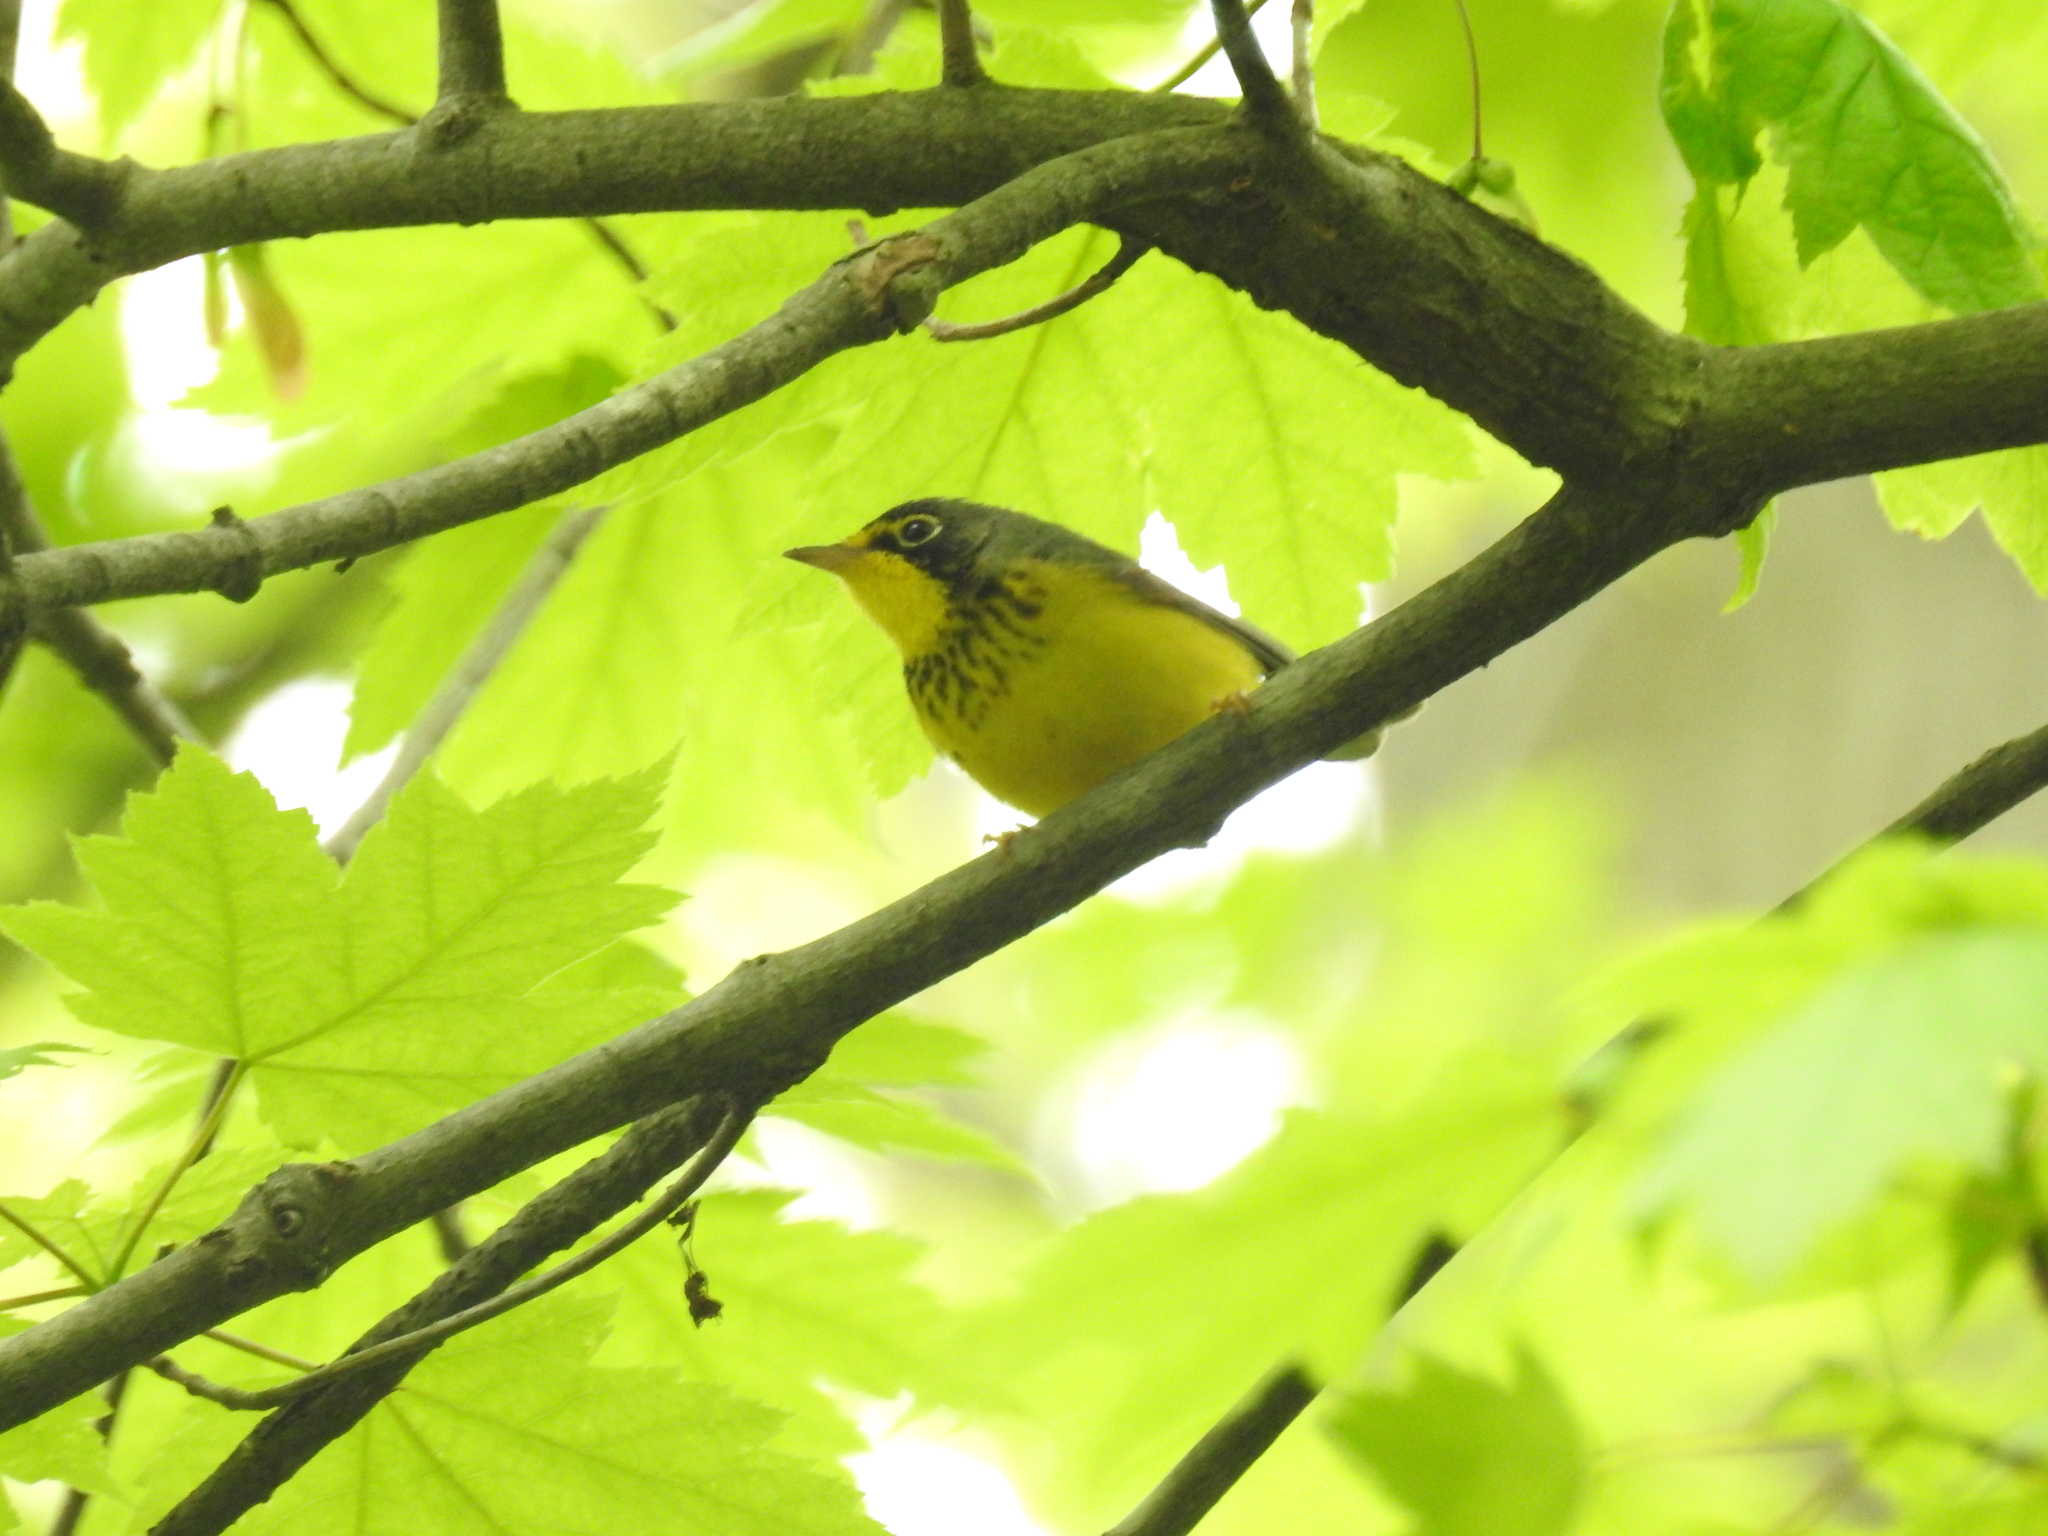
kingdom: Animalia
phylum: Chordata
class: Aves
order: Passeriformes
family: Parulidae
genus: Cardellina
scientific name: Cardellina canadensis
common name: Canada warbler
